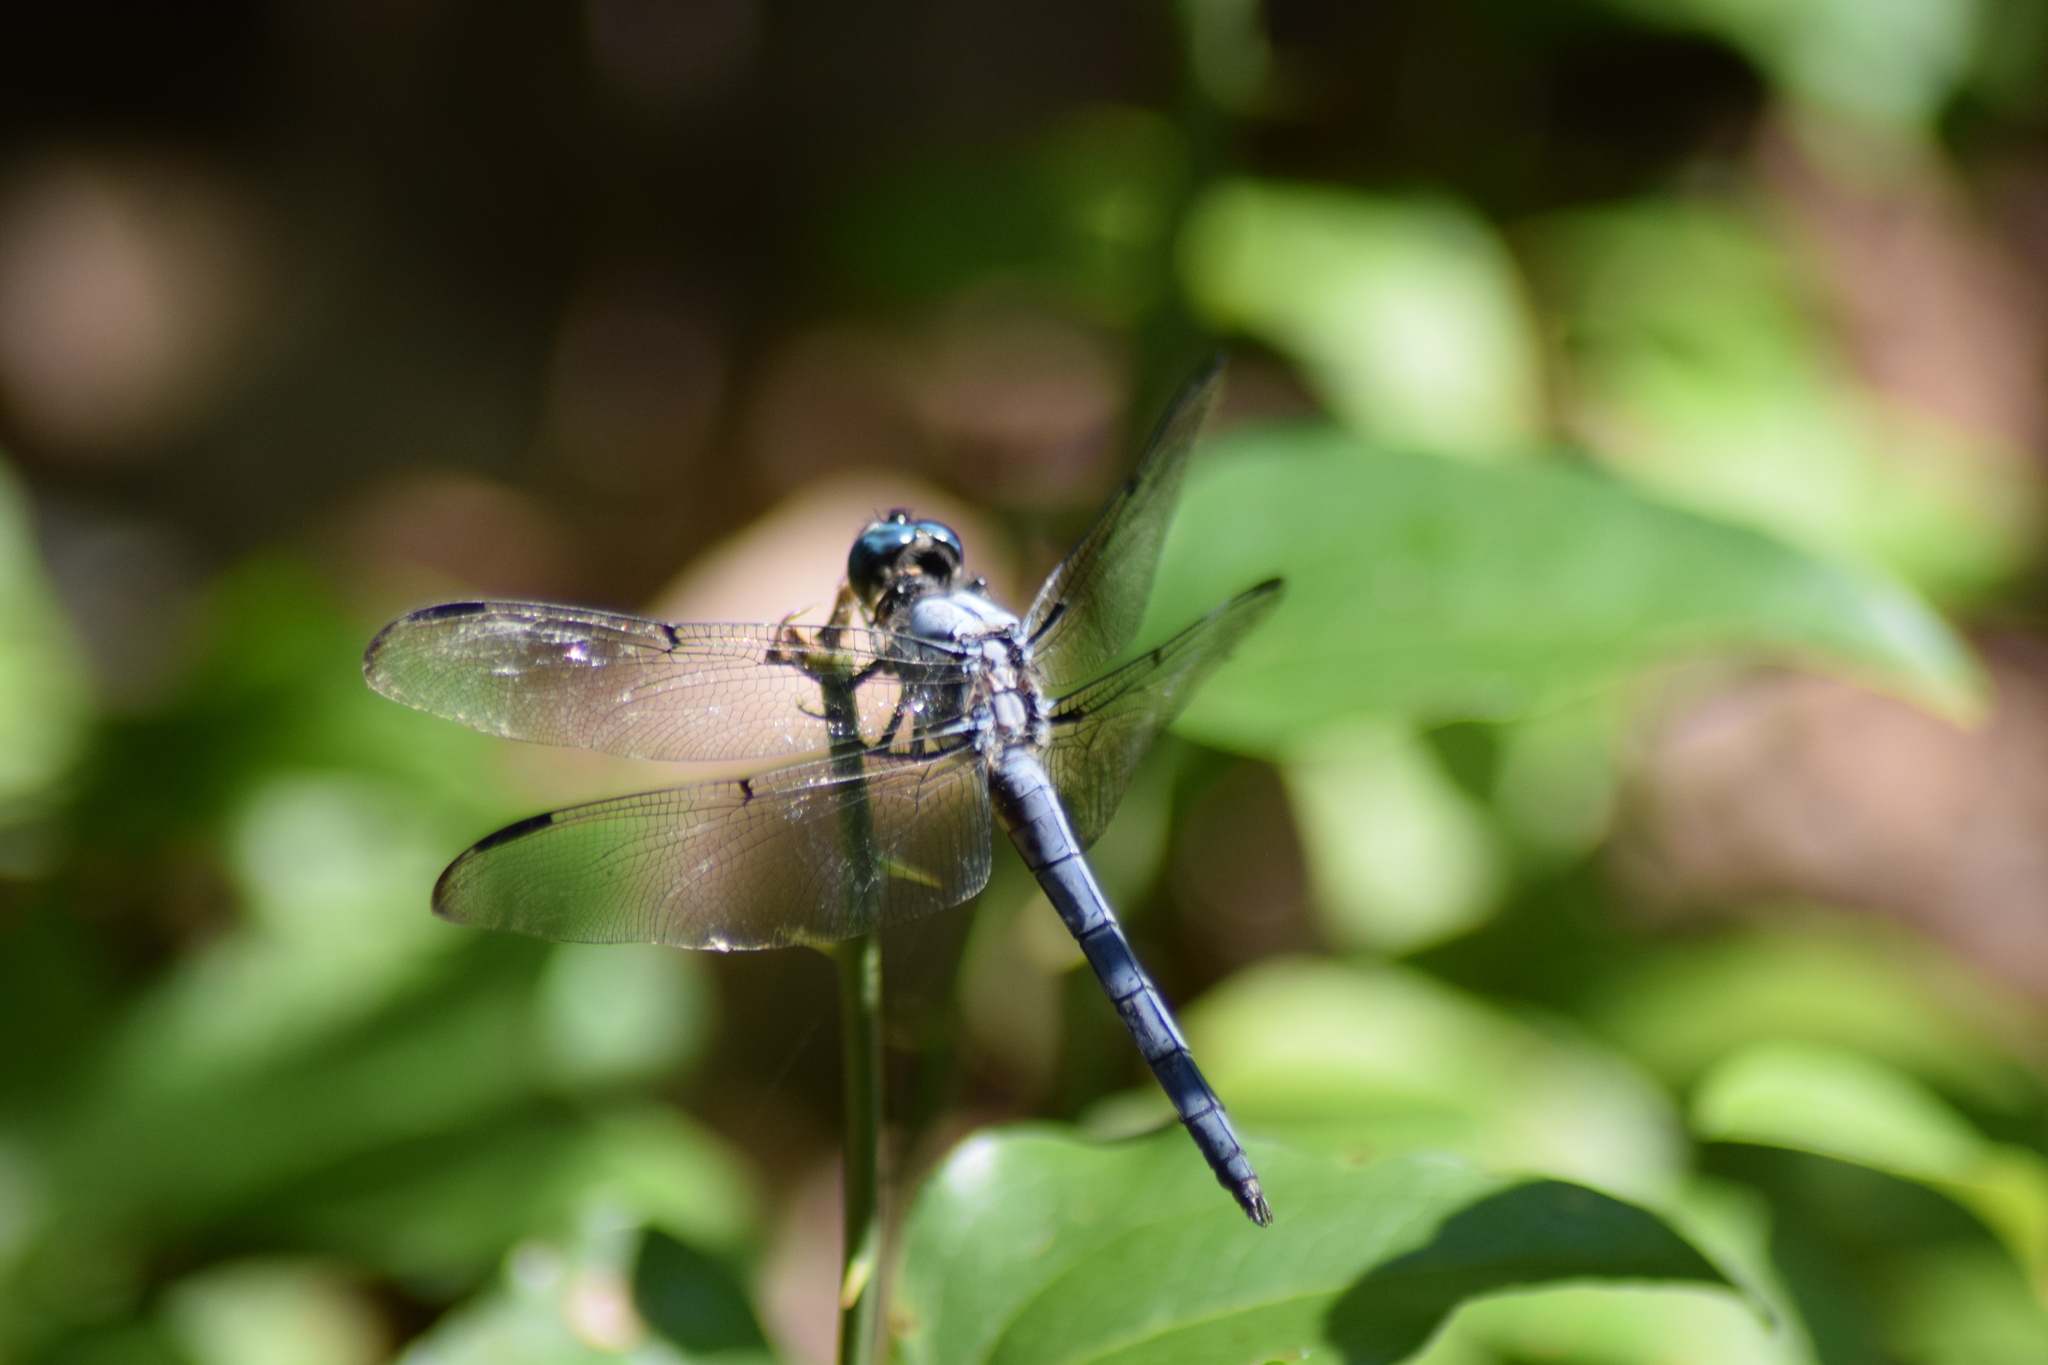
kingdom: Animalia
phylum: Arthropoda
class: Insecta
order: Odonata
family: Libellulidae
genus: Libellula
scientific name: Libellula vibrans
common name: Great blue skimmer
